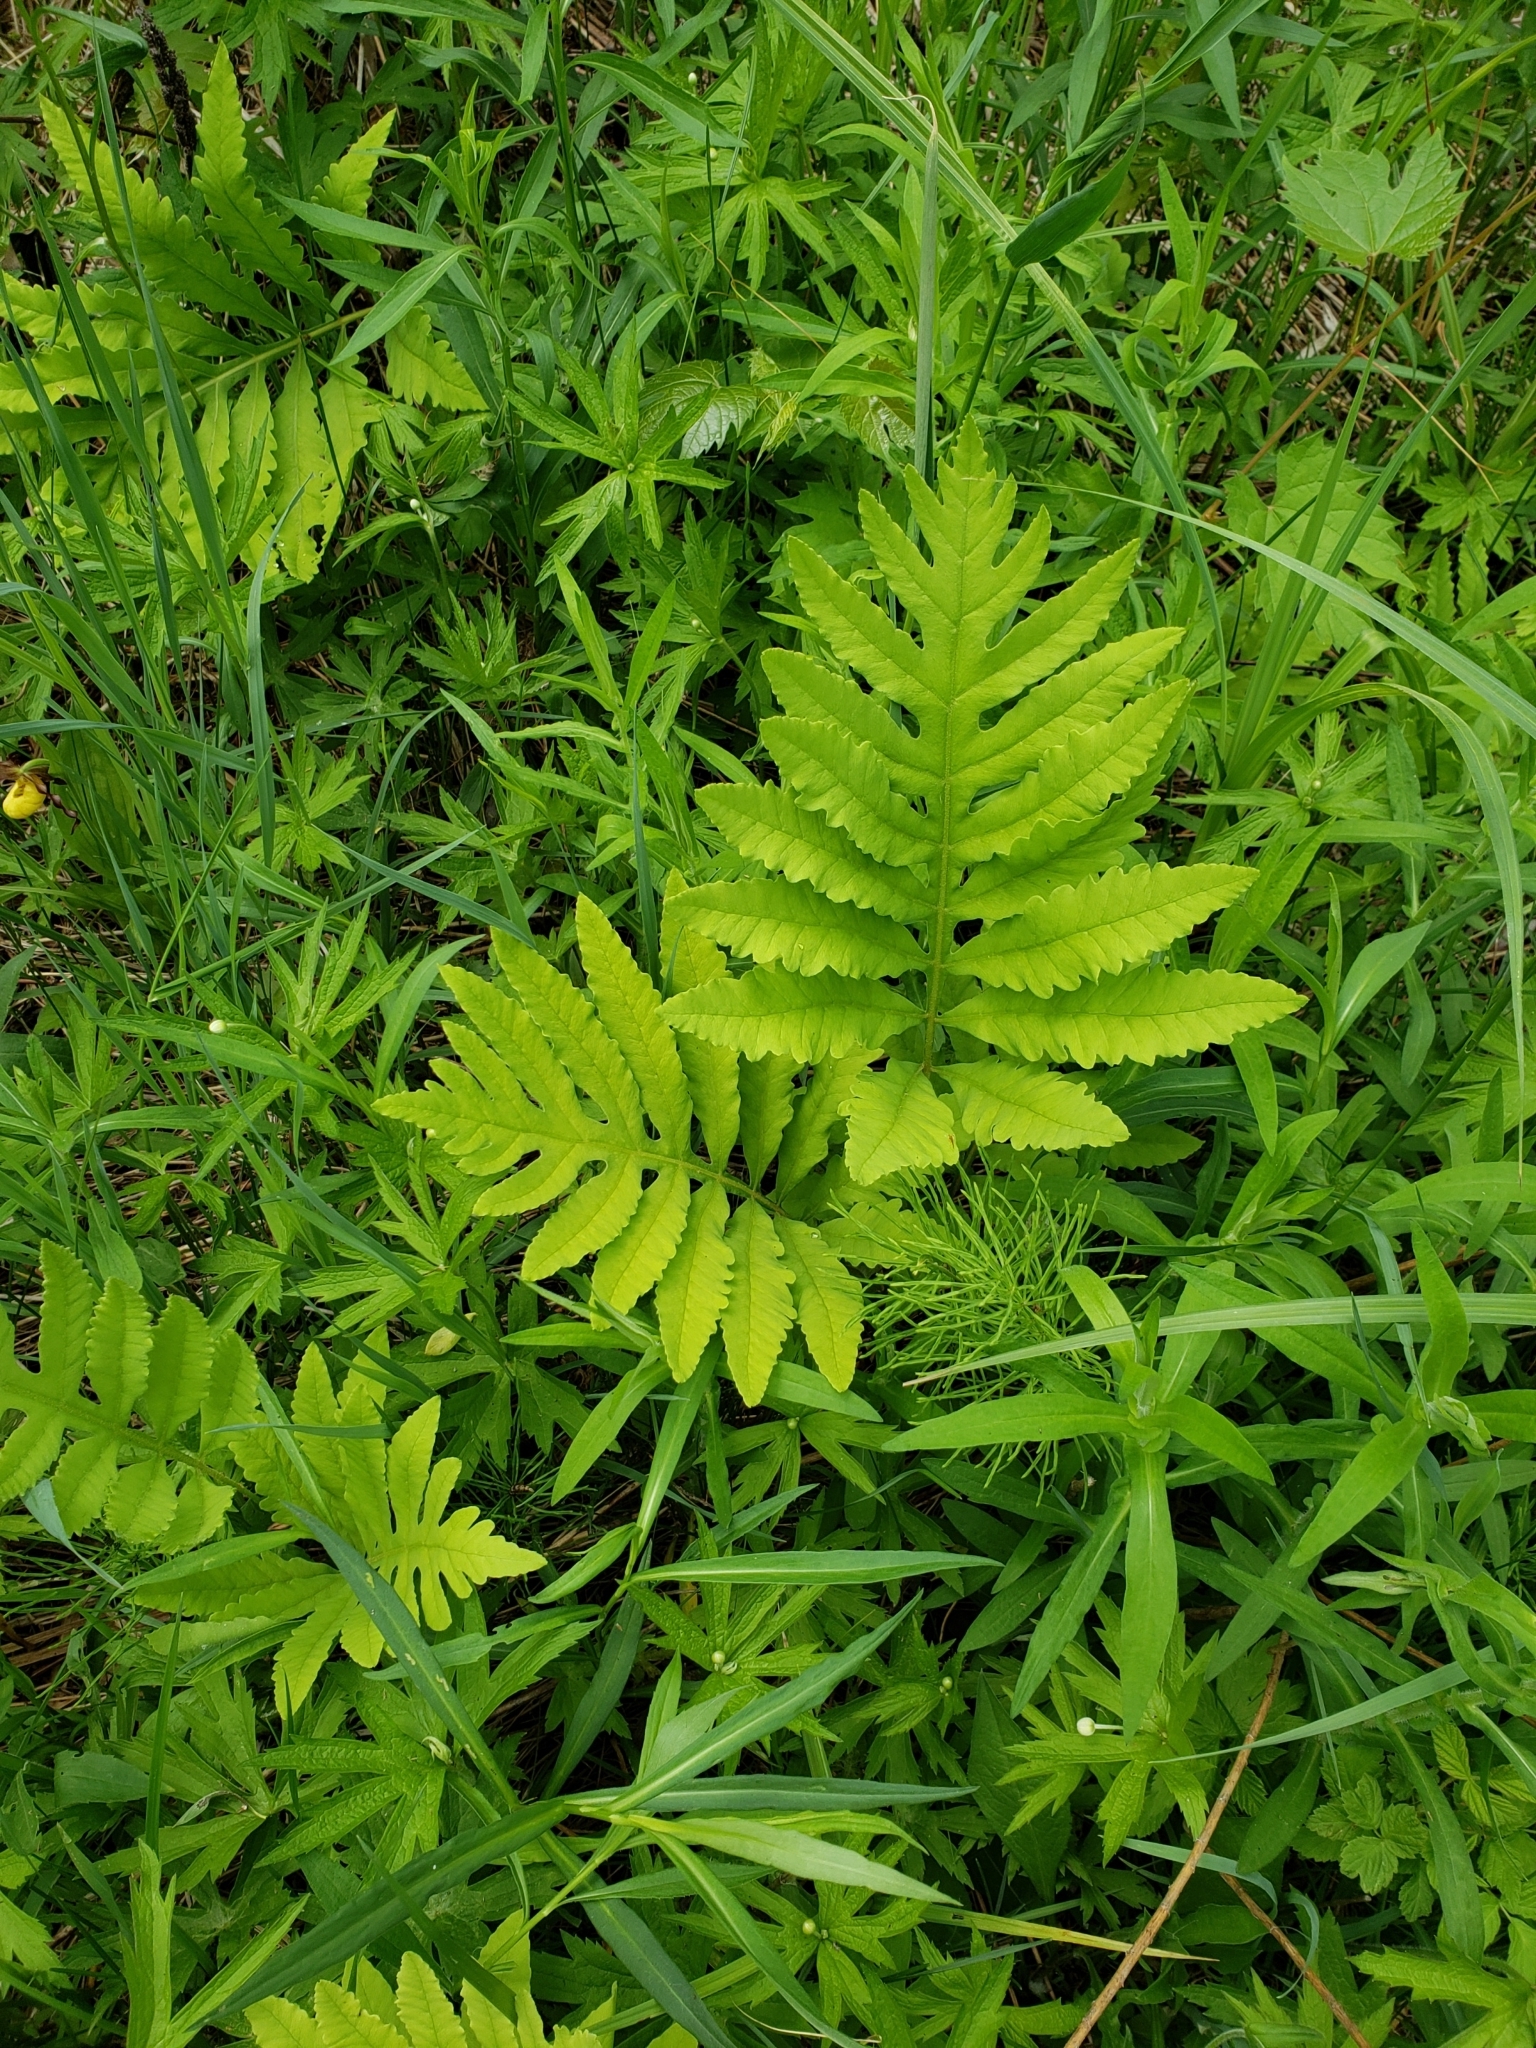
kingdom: Plantae
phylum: Tracheophyta
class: Polypodiopsida
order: Polypodiales
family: Onocleaceae
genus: Onoclea
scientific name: Onoclea sensibilis
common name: Sensitive fern
